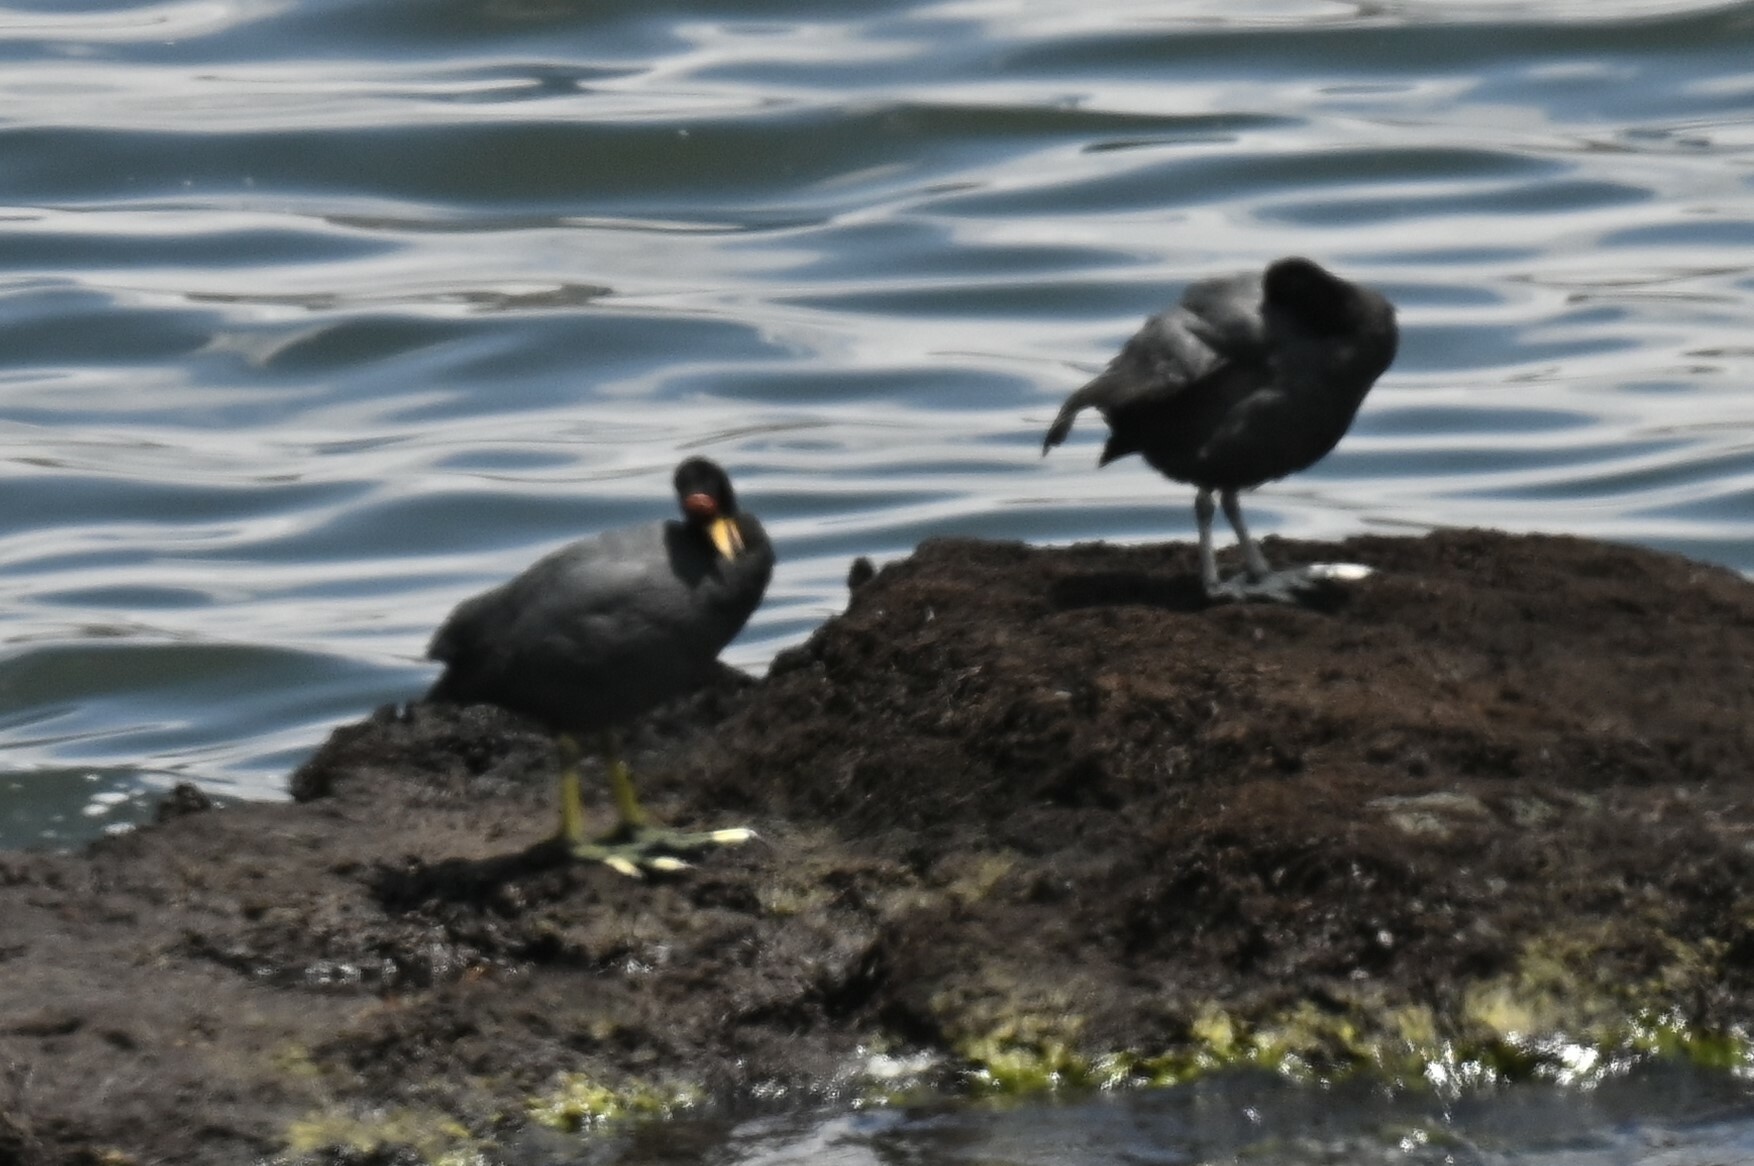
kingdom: Animalia
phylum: Chordata
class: Aves
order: Gruiformes
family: Rallidae
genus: Fulica
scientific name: Fulica ardesiaca
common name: Andean coot
